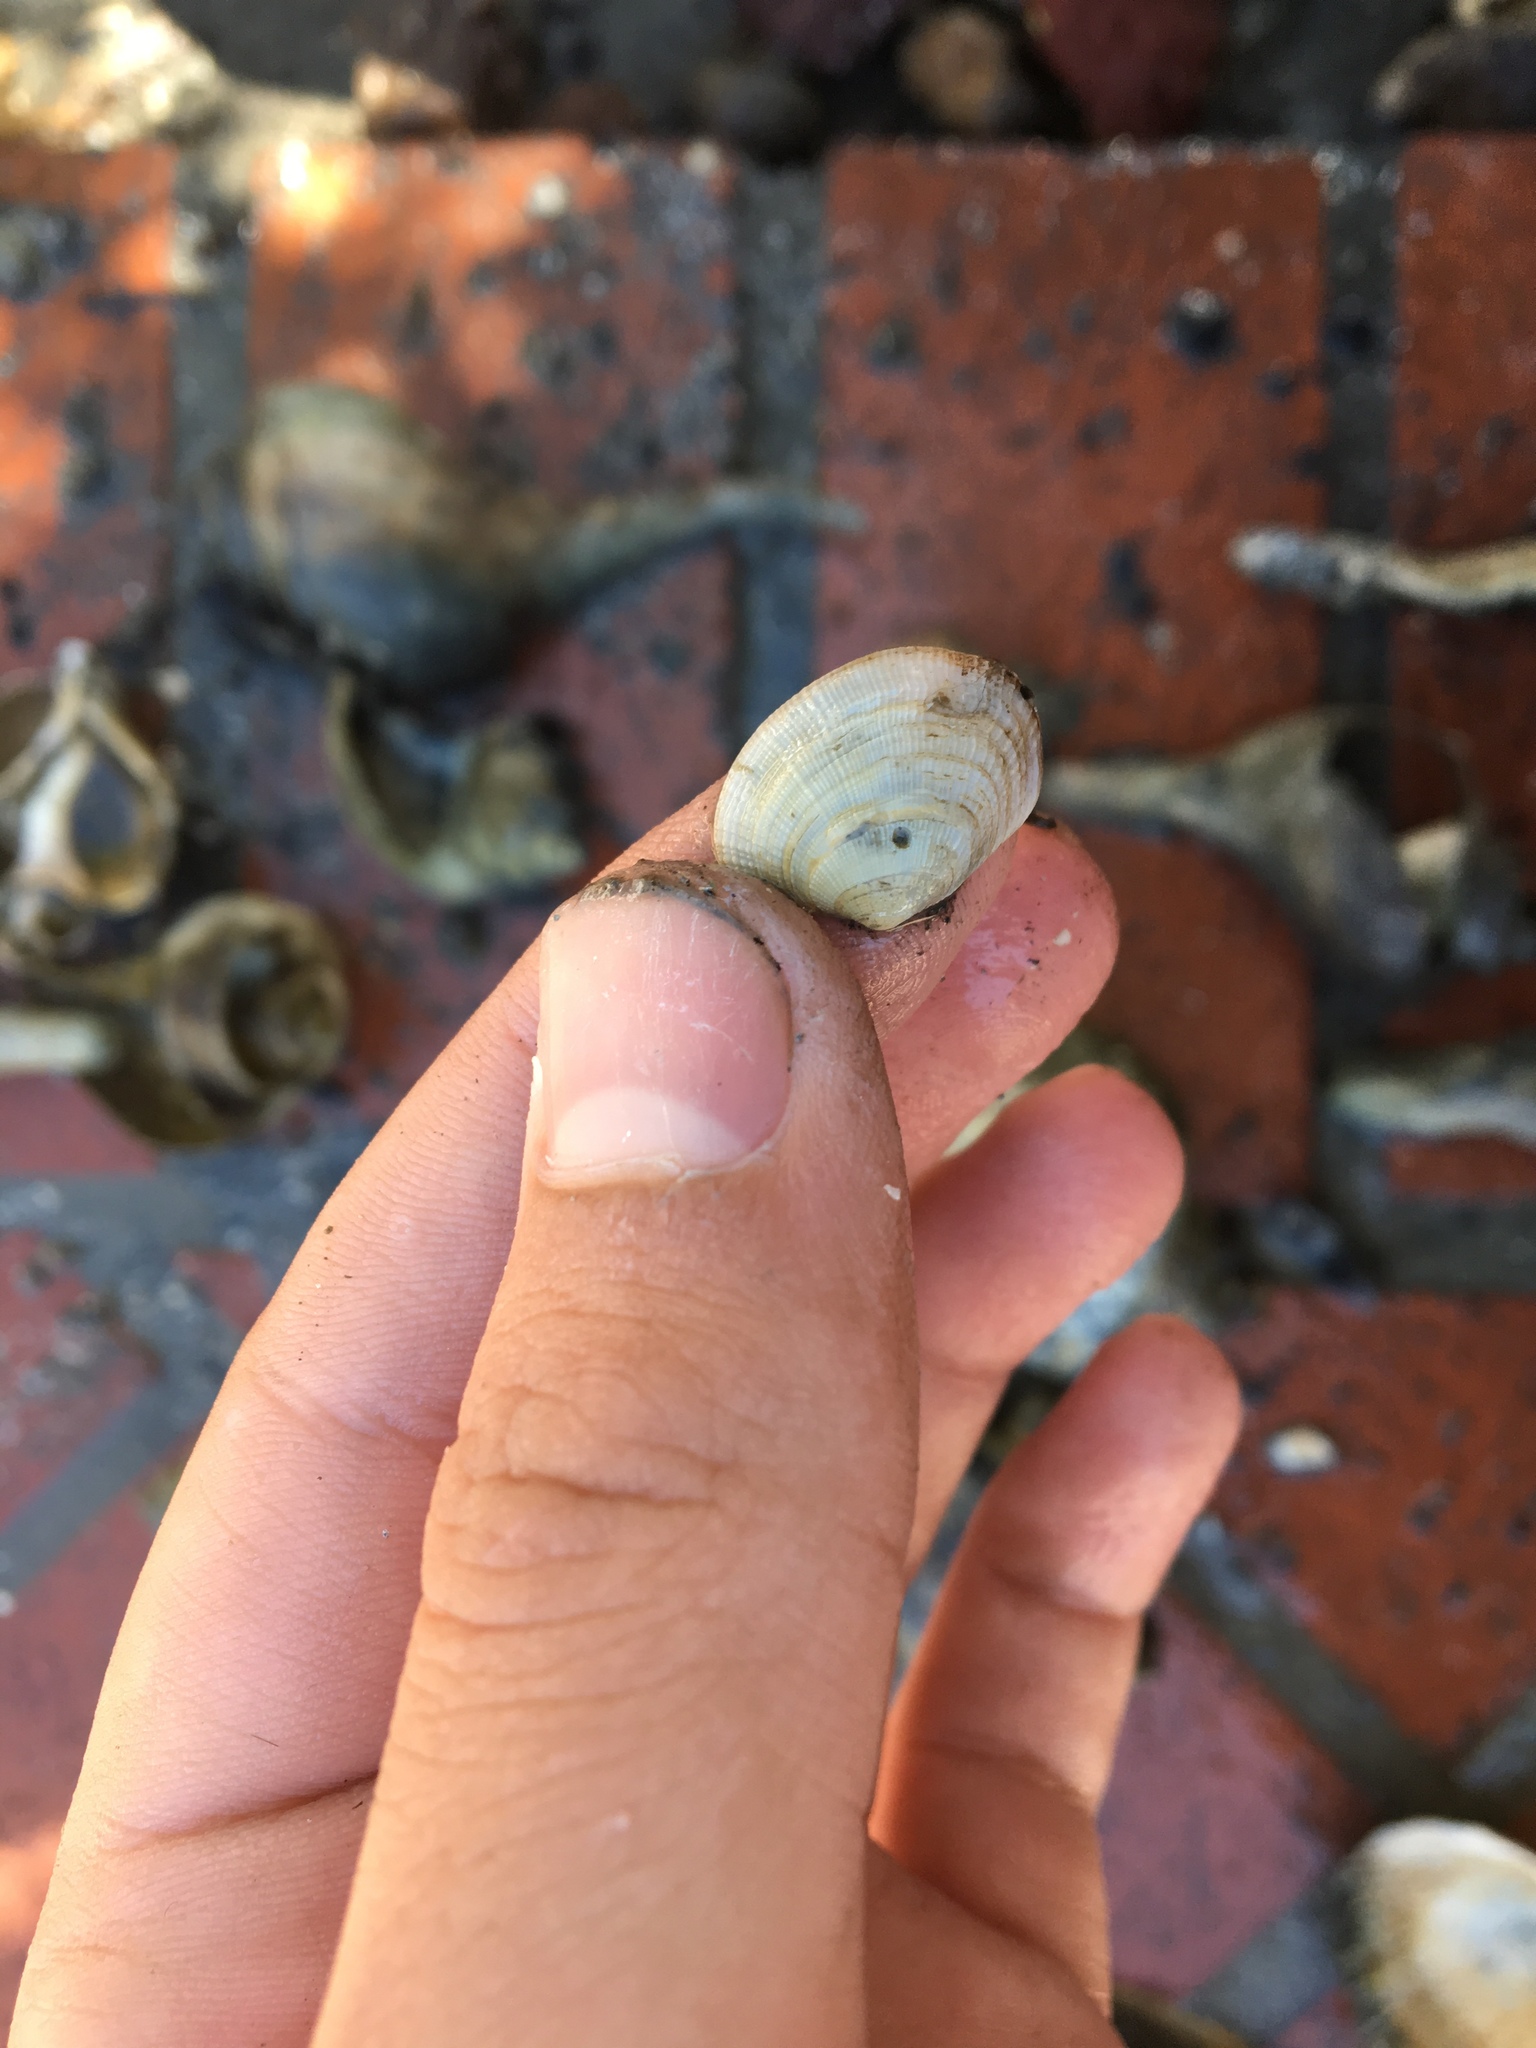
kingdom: Animalia
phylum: Mollusca
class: Bivalvia
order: Venerida
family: Veneridae
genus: Ruditapes
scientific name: Ruditapes philippinarum
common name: Manila clam
